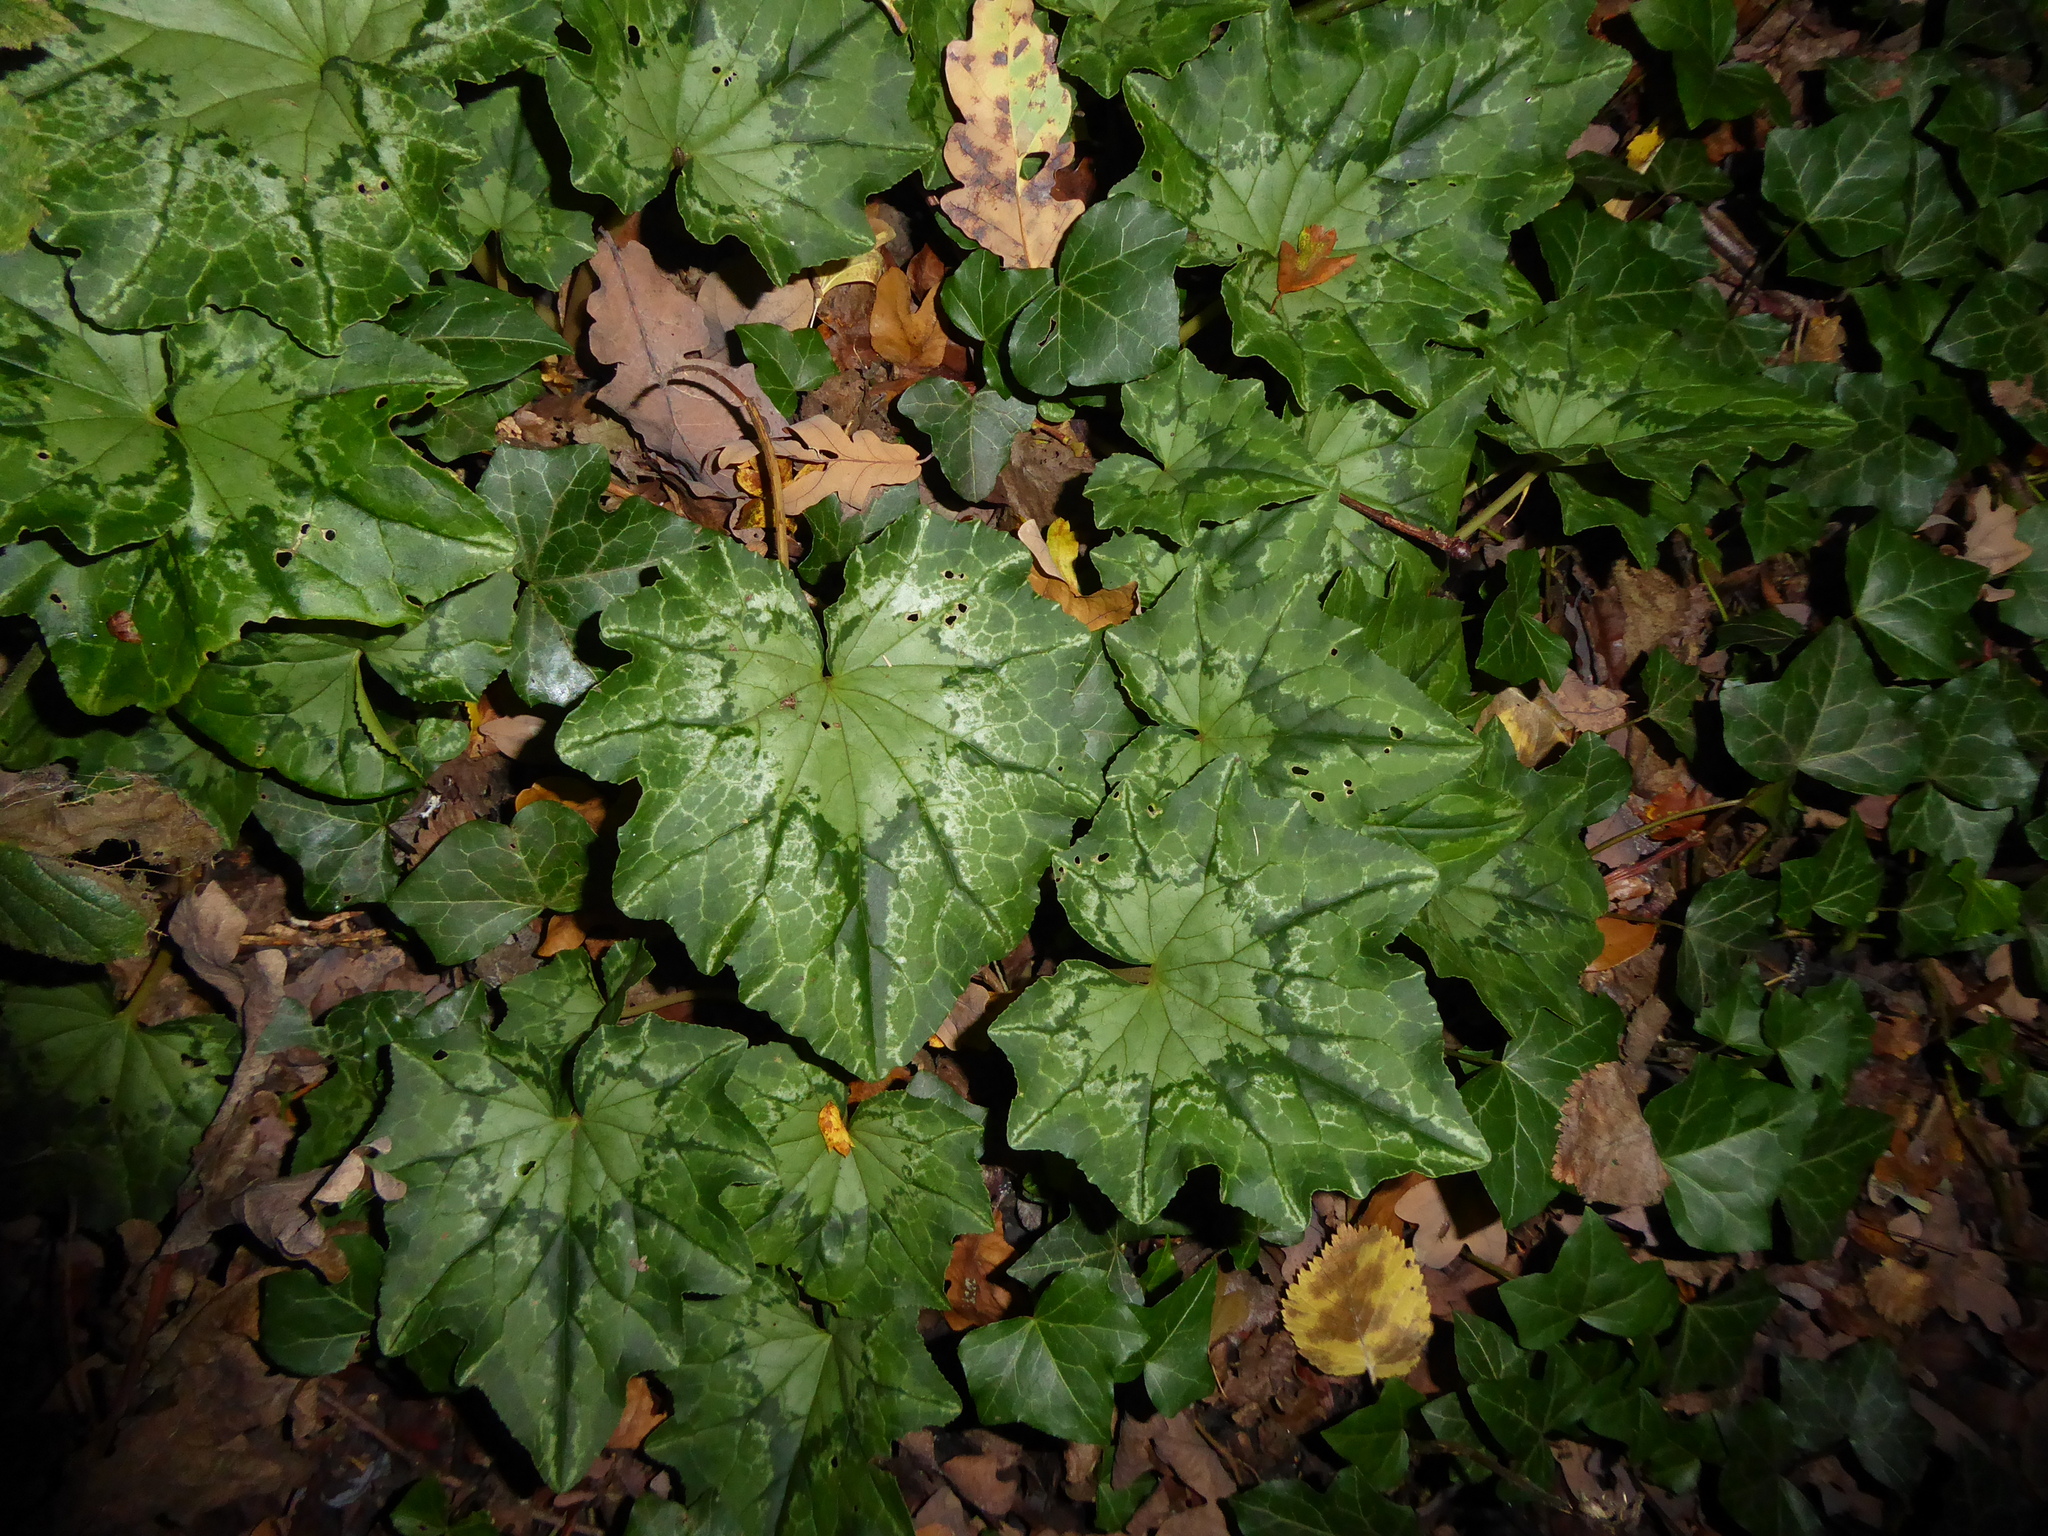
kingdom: Plantae
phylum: Tracheophyta
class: Magnoliopsida
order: Ericales
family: Primulaceae
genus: Cyclamen
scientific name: Cyclamen hederifolium
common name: Sowbread
